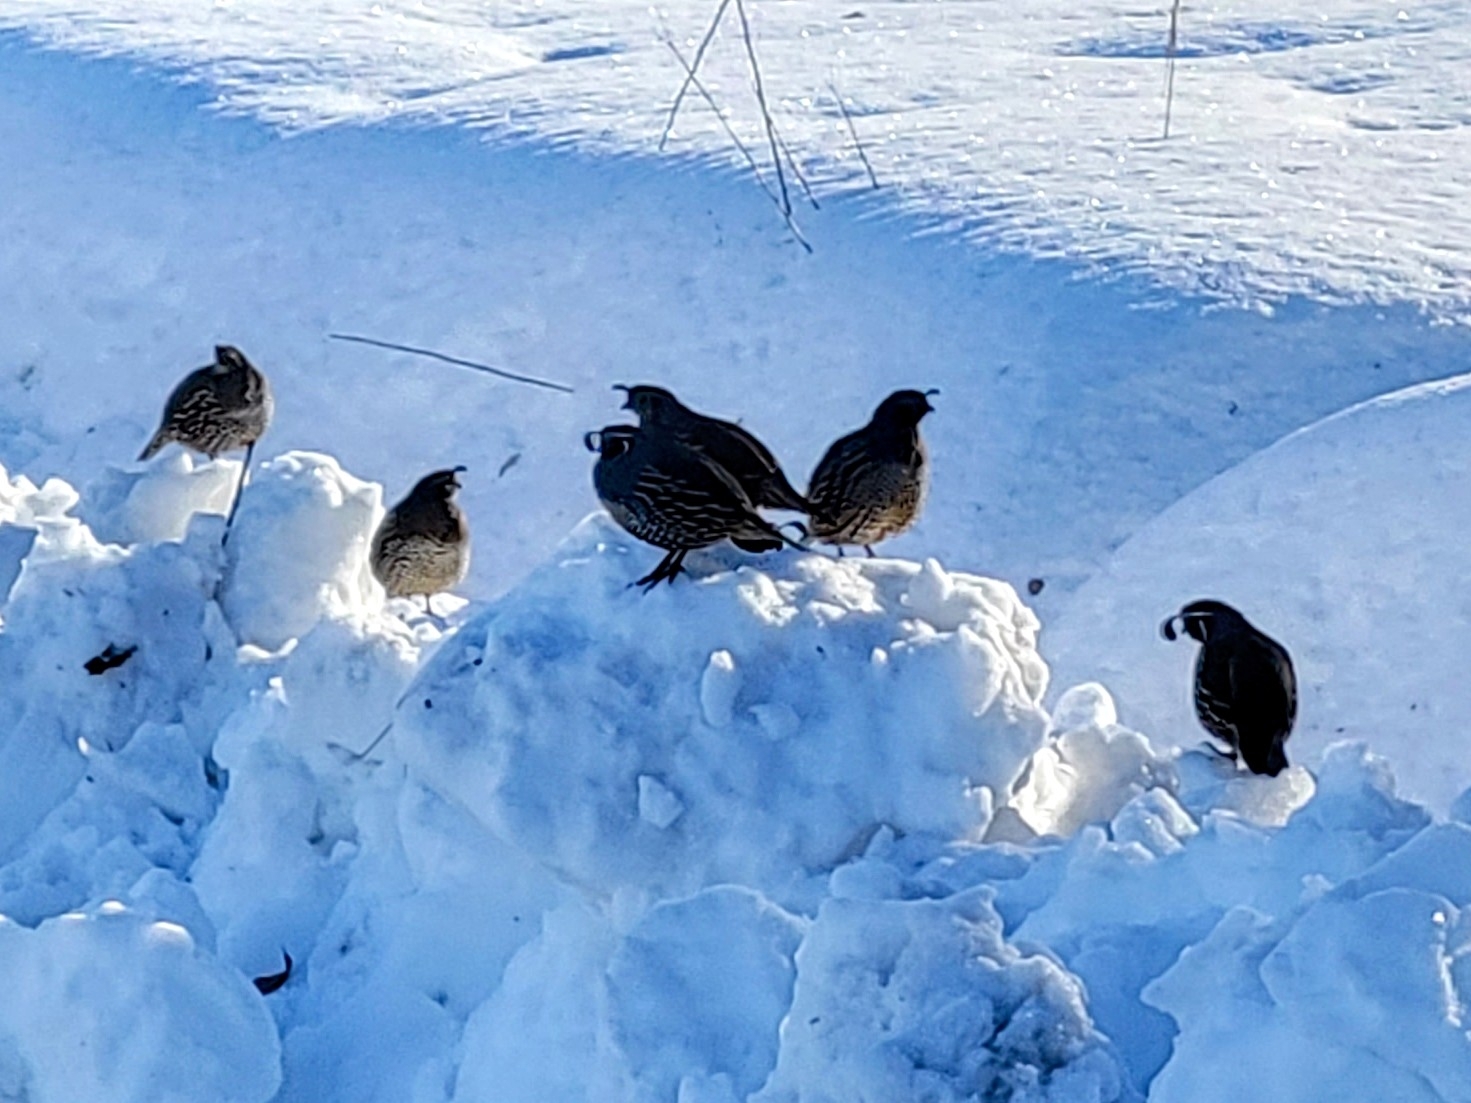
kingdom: Animalia
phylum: Chordata
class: Aves
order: Galliformes
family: Odontophoridae
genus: Callipepla
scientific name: Callipepla californica
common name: California quail
